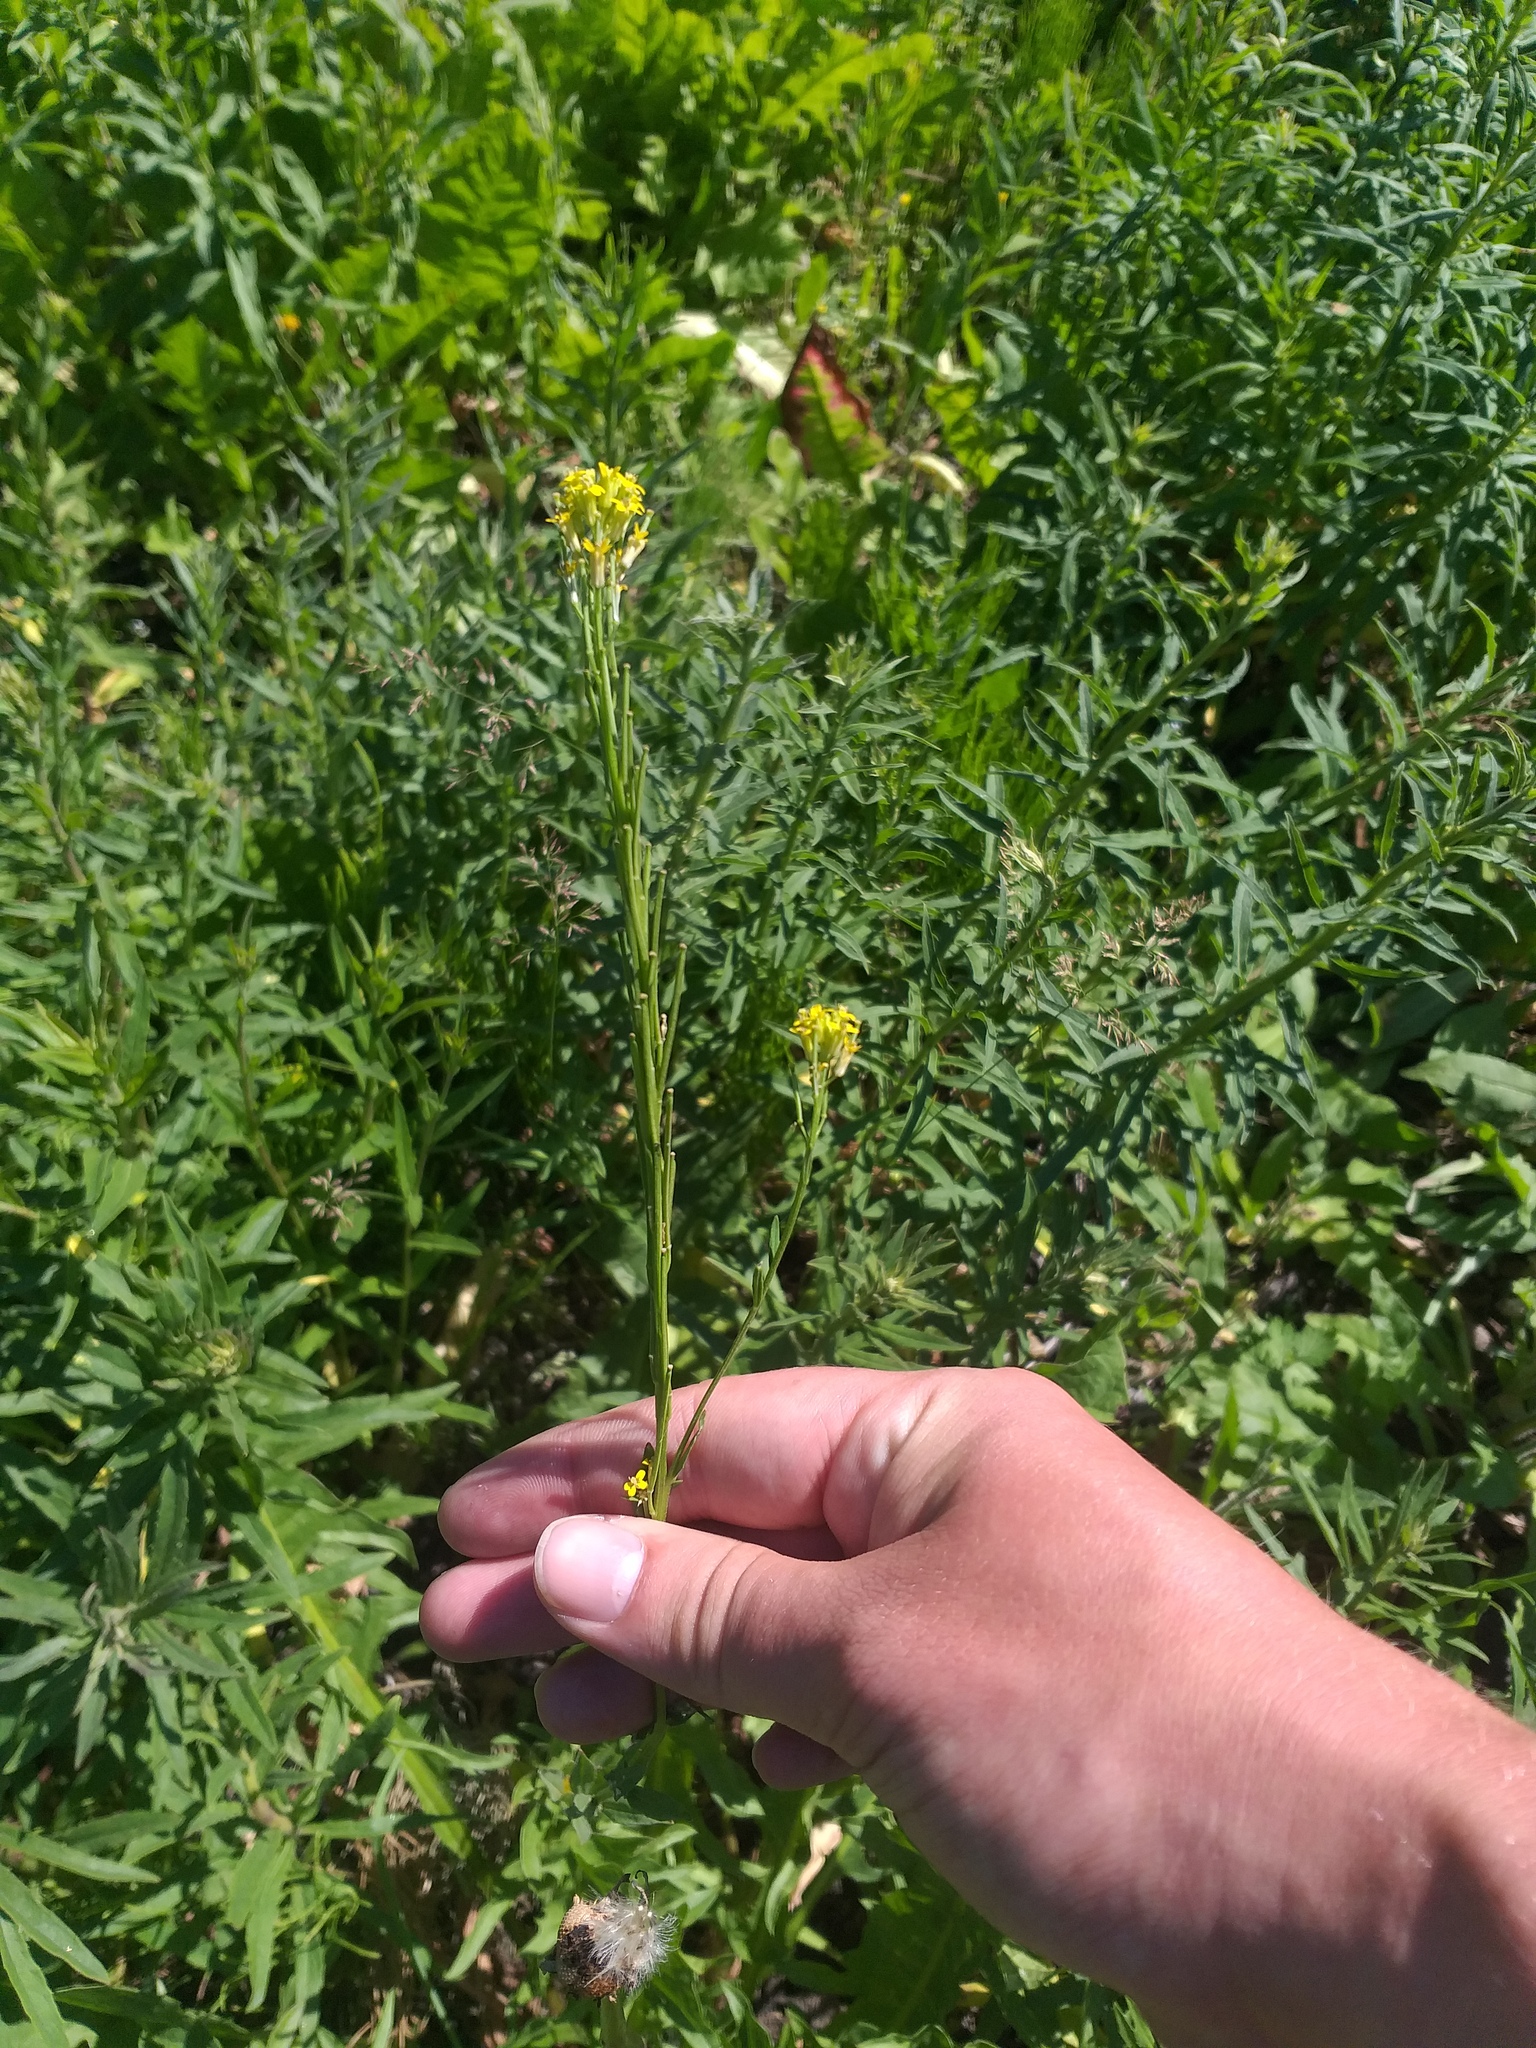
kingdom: Plantae
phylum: Tracheophyta
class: Magnoliopsida
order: Brassicales
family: Brassicaceae
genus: Erysimum
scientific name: Erysimum hieraciifolium
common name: European wallflower
